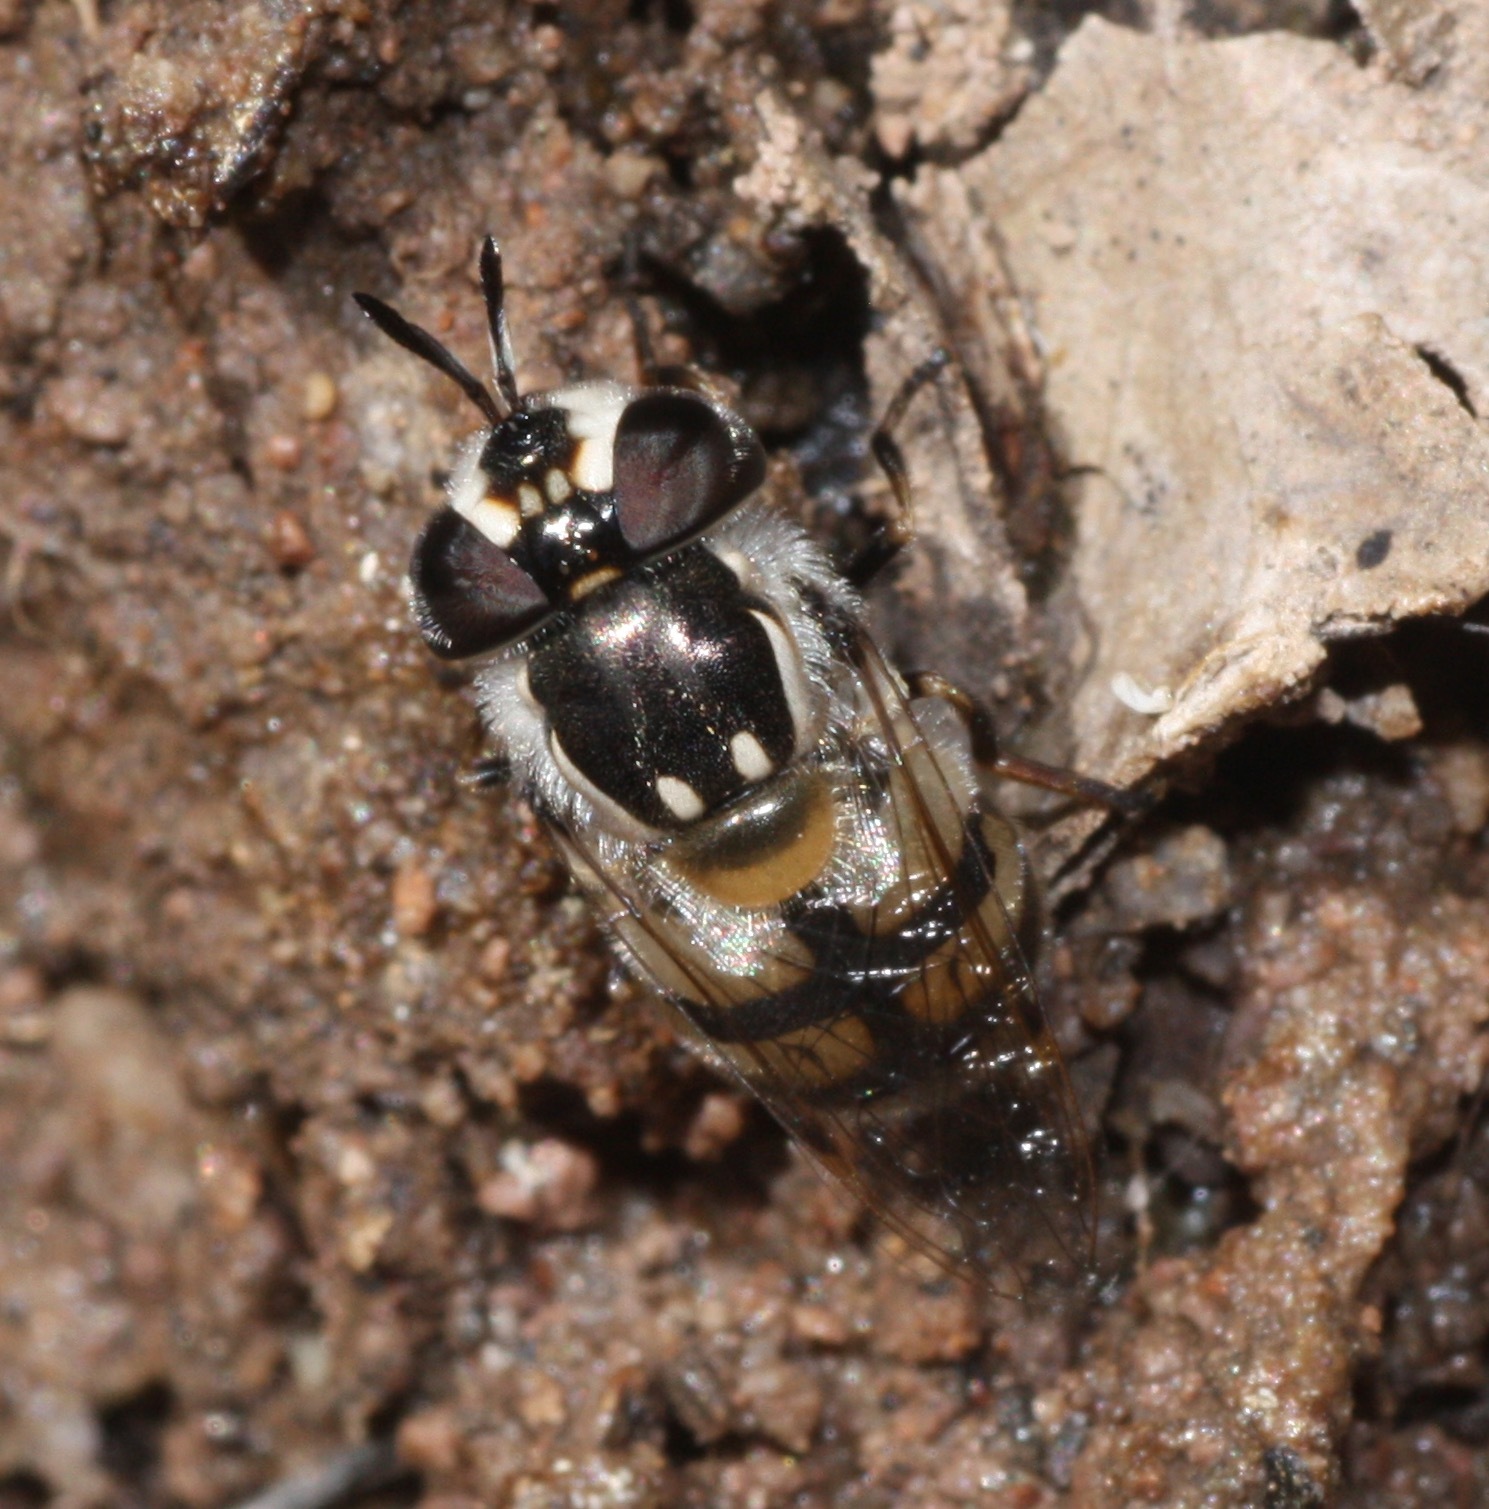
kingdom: Animalia
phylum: Arthropoda
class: Insecta
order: Diptera
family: Syrphidae
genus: Copestylum
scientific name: Copestylum marginatum
